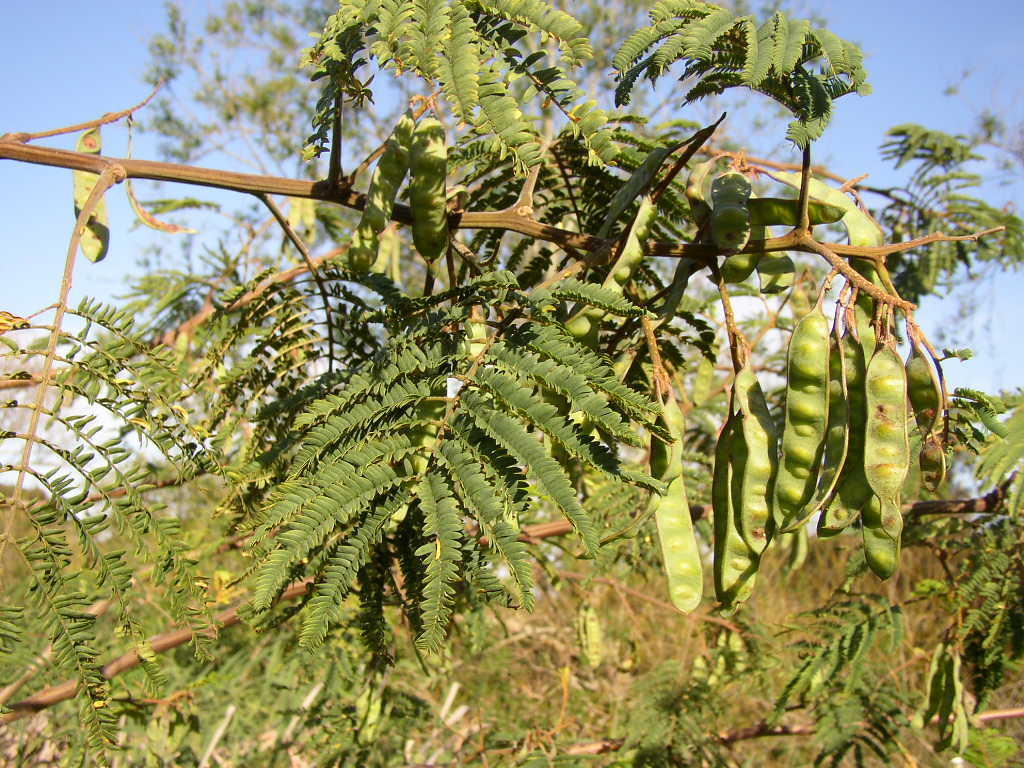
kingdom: Plantae
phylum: Tracheophyta
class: Magnoliopsida
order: Fabales
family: Fabaceae
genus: Paraserianthes
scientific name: Paraserianthes lophantha
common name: Plume albizia
